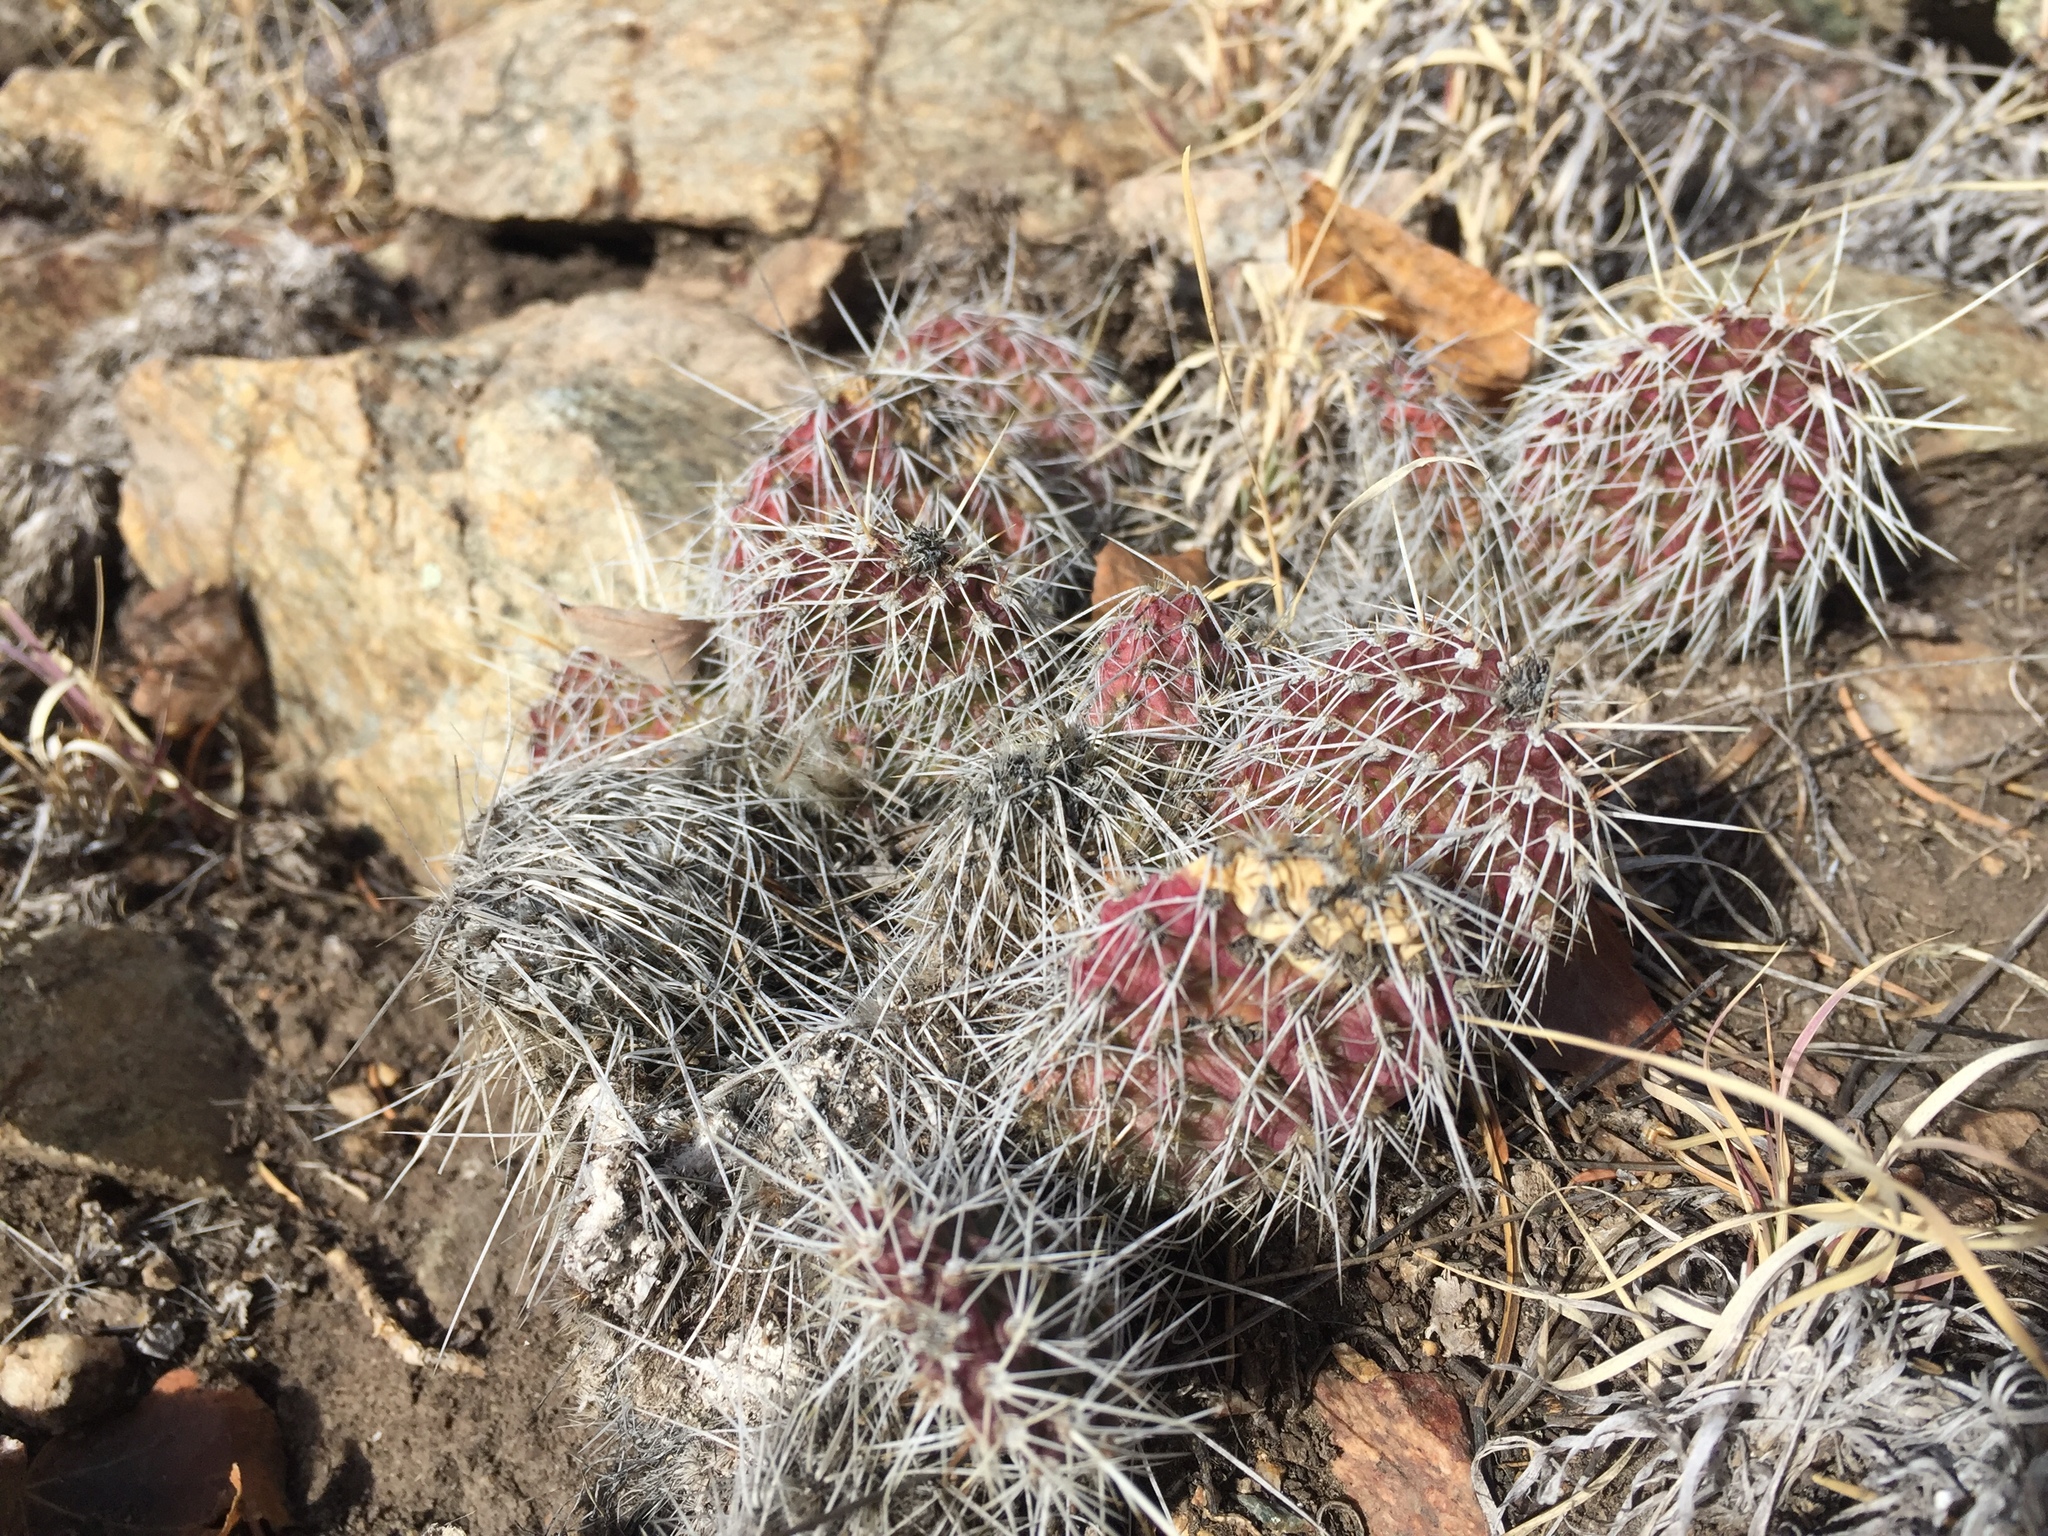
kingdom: Plantae
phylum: Tracheophyta
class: Magnoliopsida
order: Caryophyllales
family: Cactaceae
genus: Opuntia
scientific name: Opuntia polyacantha
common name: Plains prickly-pear
